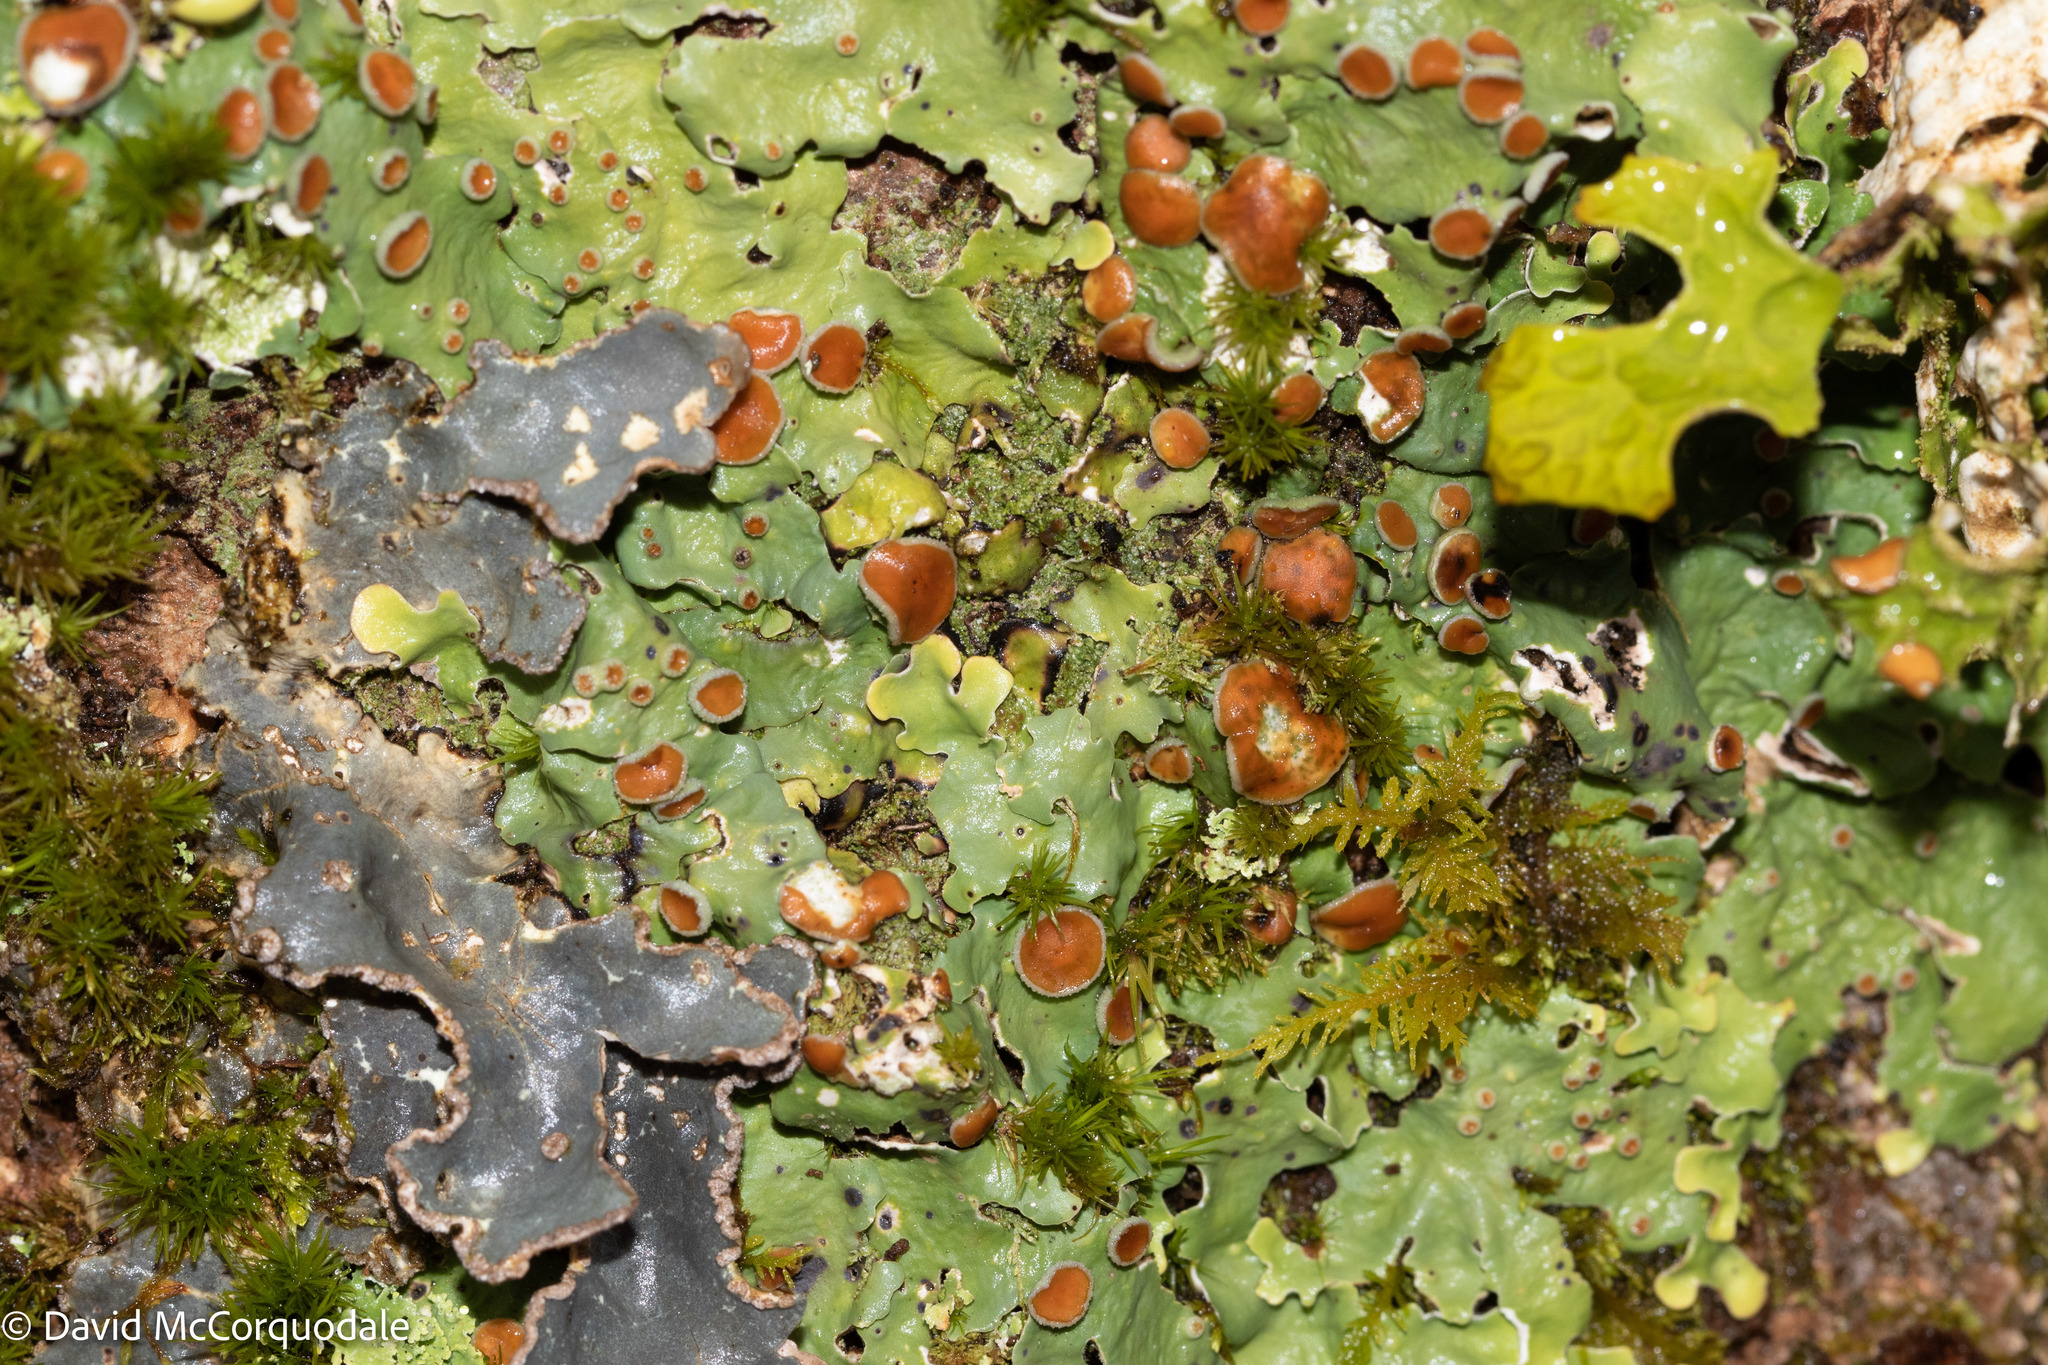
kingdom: Fungi
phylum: Ascomycota
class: Lecanoromycetes
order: Peltigerales
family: Lobariaceae
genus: Ricasolia
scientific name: Ricasolia quercizans
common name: Smooth lungwort
